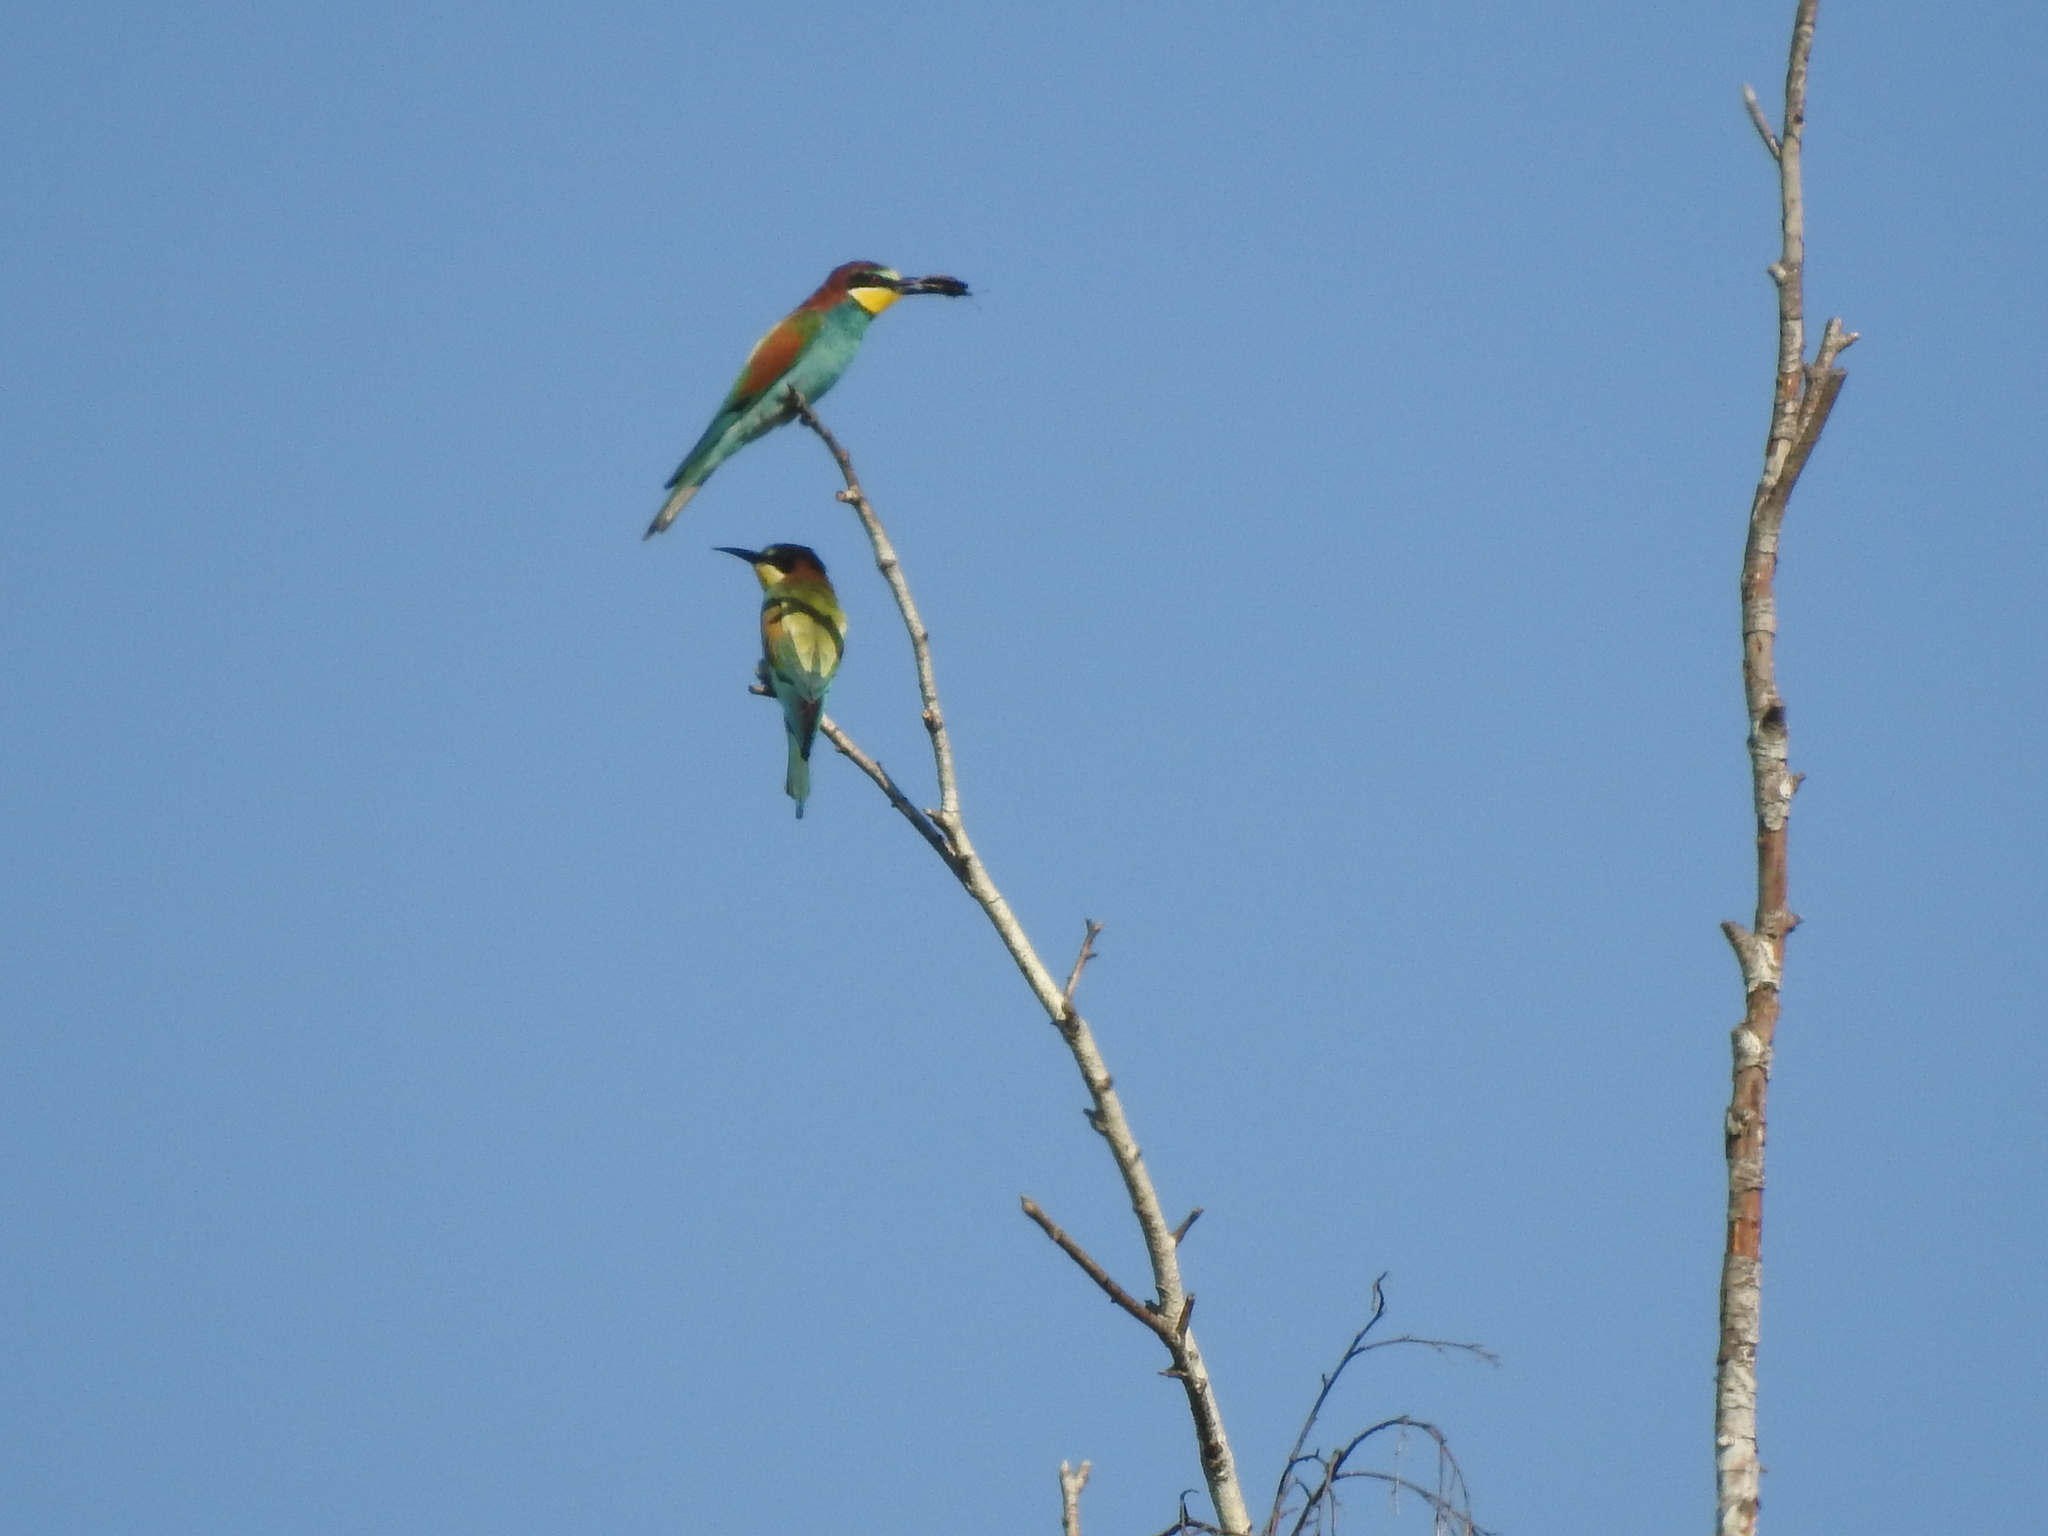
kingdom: Animalia
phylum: Chordata
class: Aves
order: Coraciiformes
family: Meropidae
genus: Merops
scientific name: Merops apiaster
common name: European bee-eater
